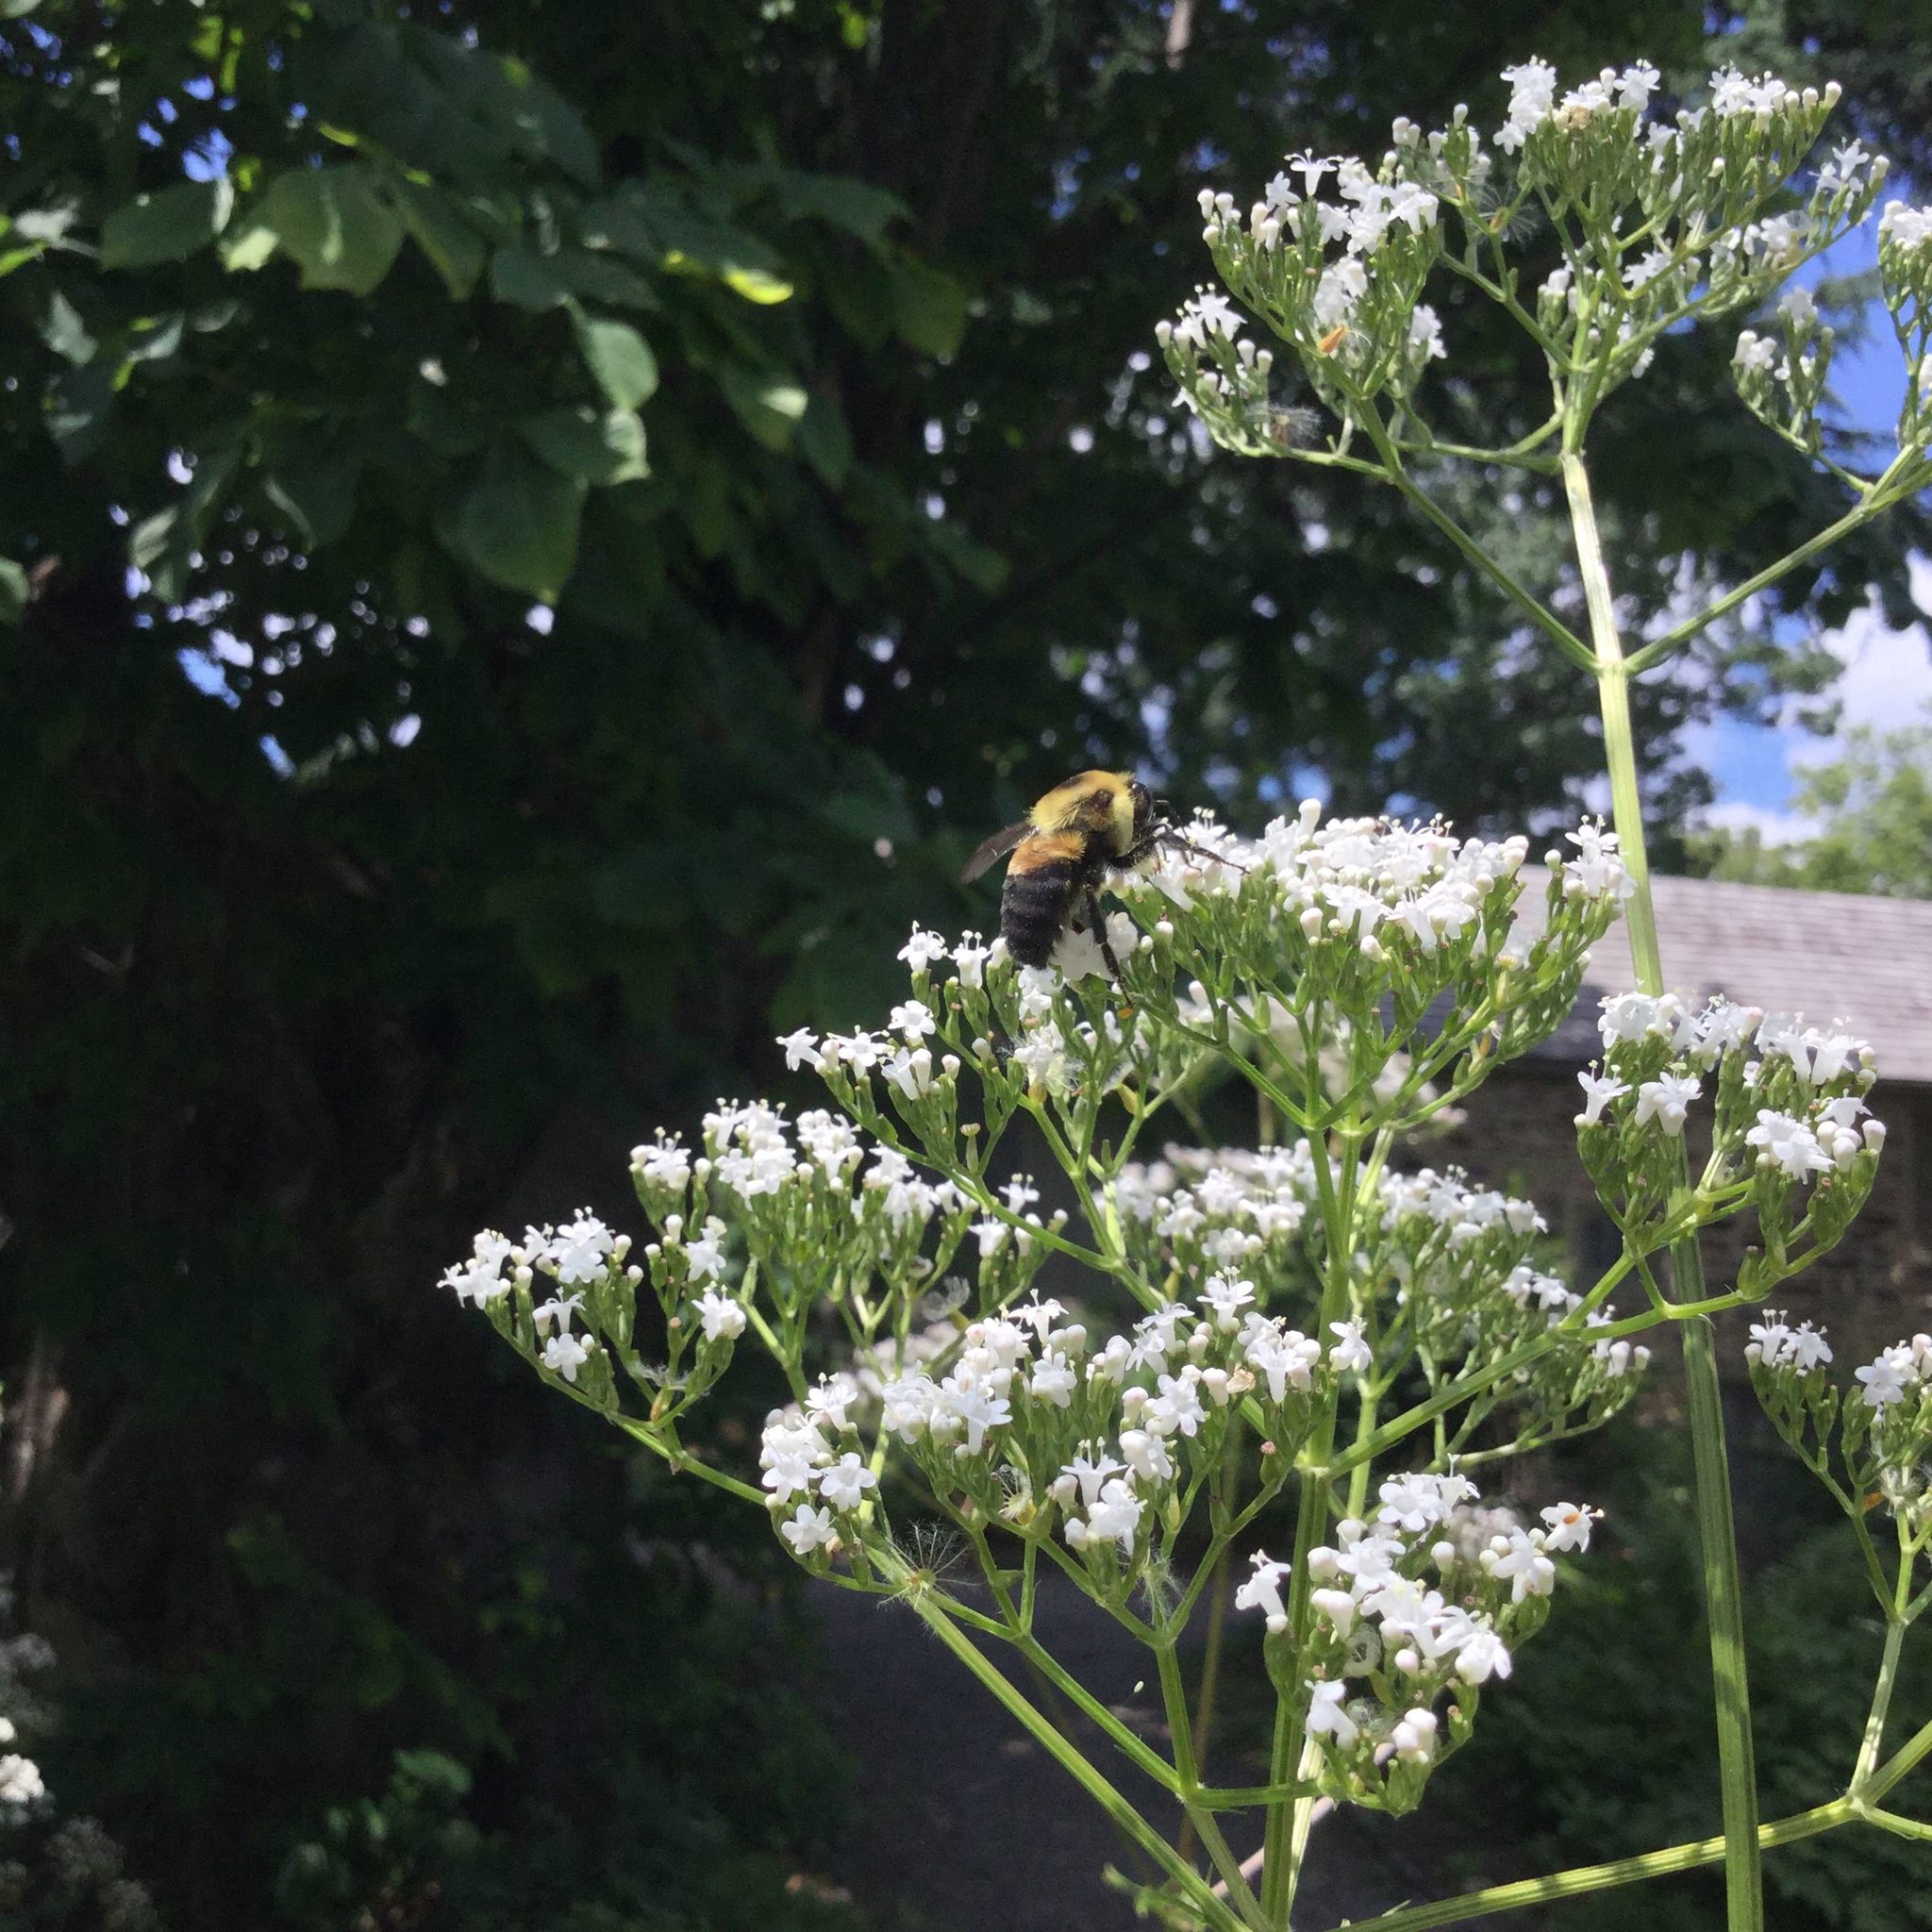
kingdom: Animalia
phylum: Arthropoda
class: Insecta
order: Hymenoptera
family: Apidae
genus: Bombus
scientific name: Bombus griseocollis
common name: Brown-belted bumble bee
